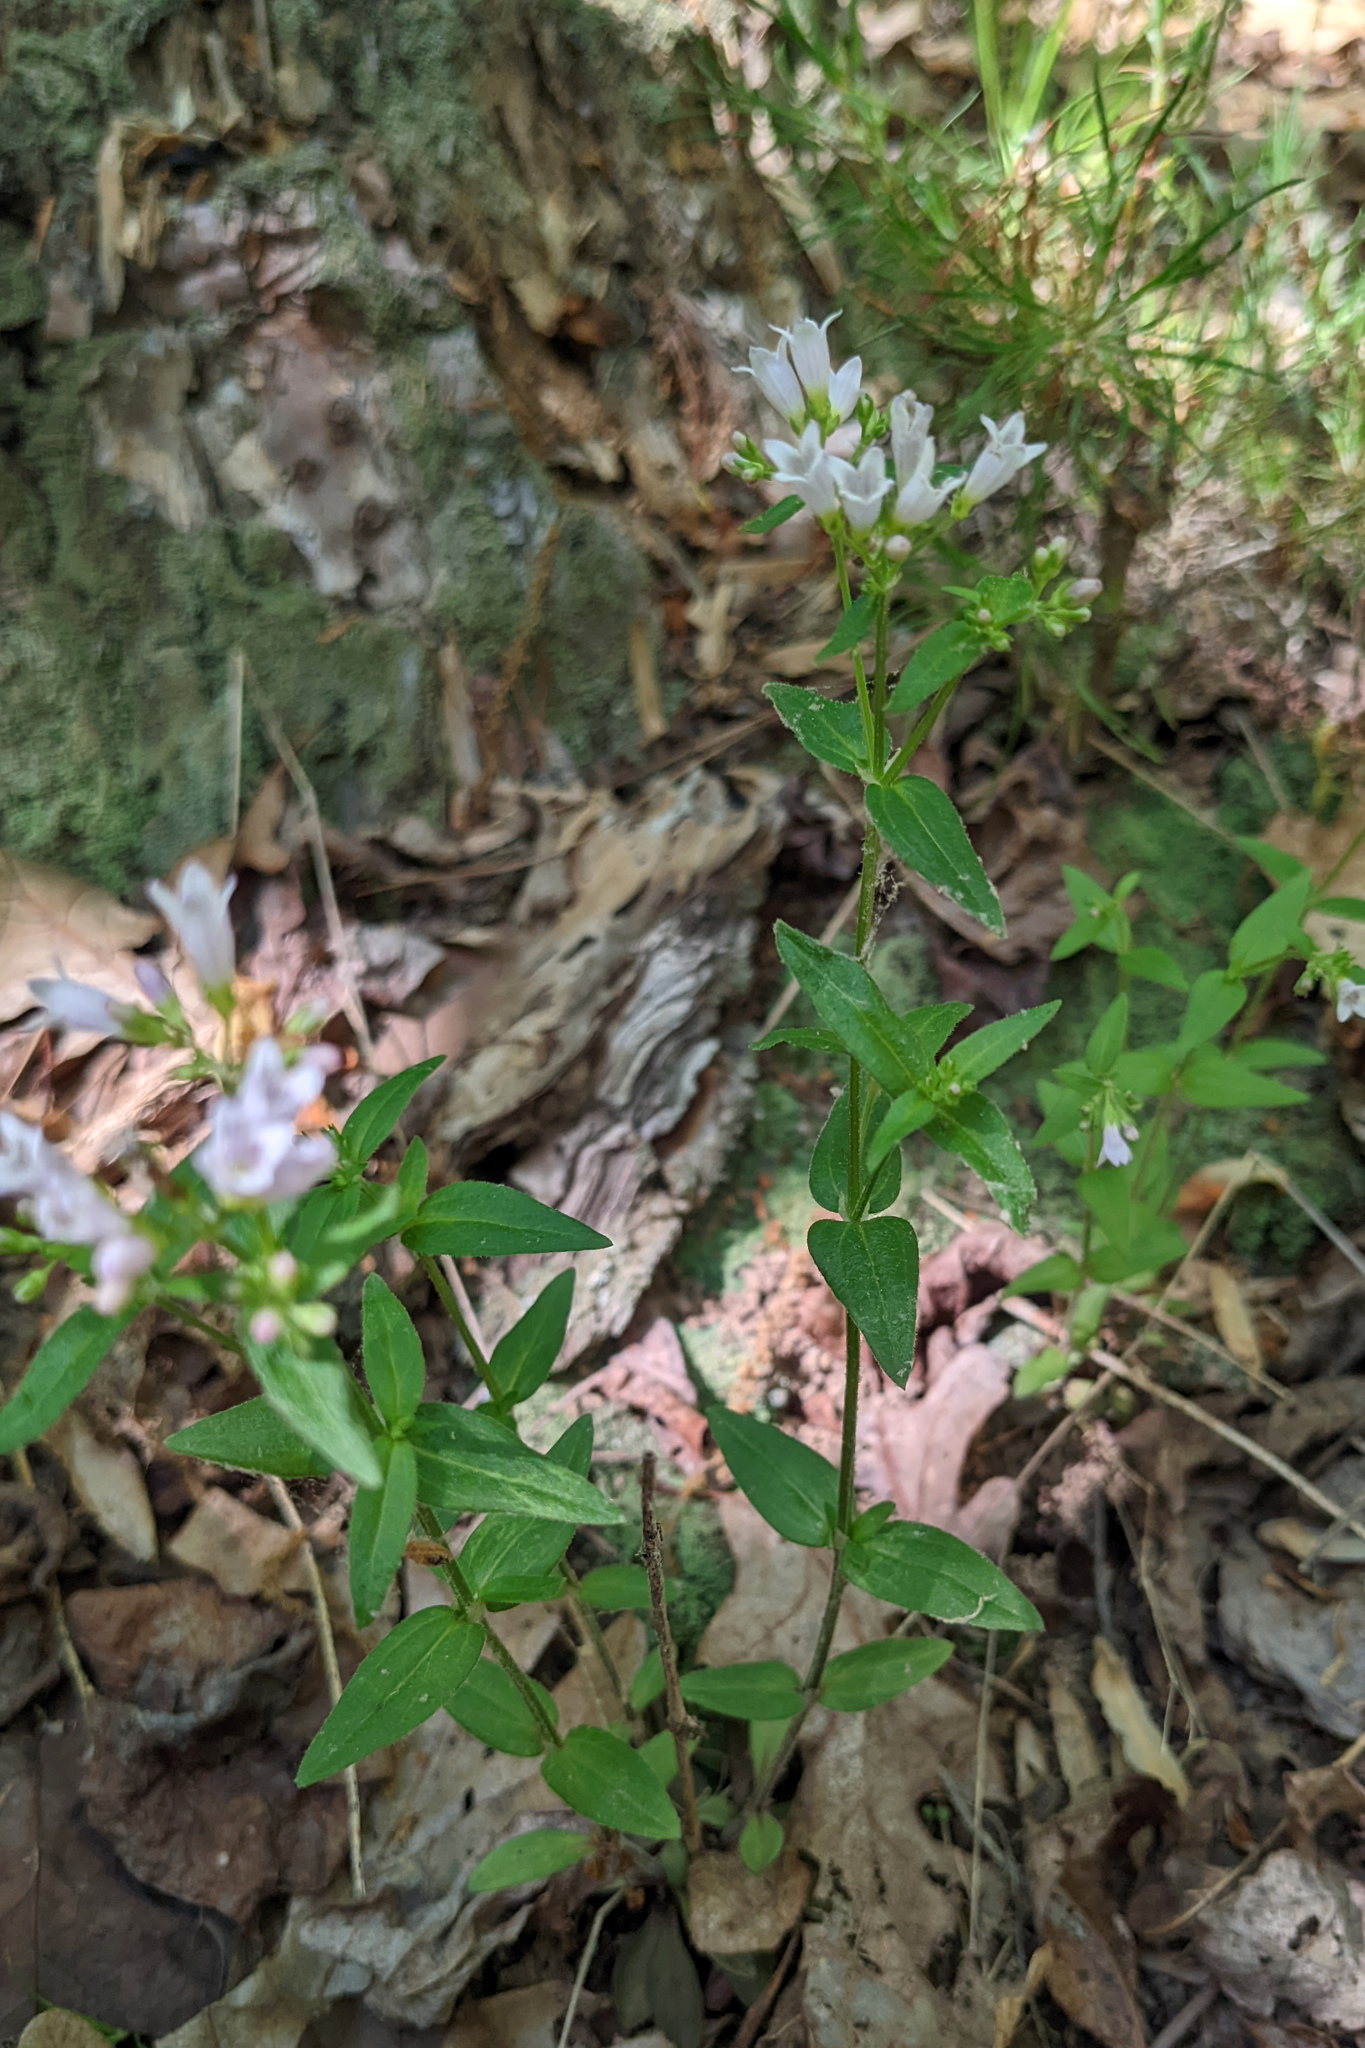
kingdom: Plantae
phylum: Tracheophyta
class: Magnoliopsida
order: Gentianales
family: Rubiaceae
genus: Houstonia
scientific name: Houstonia purpurea
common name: Summer bluet
